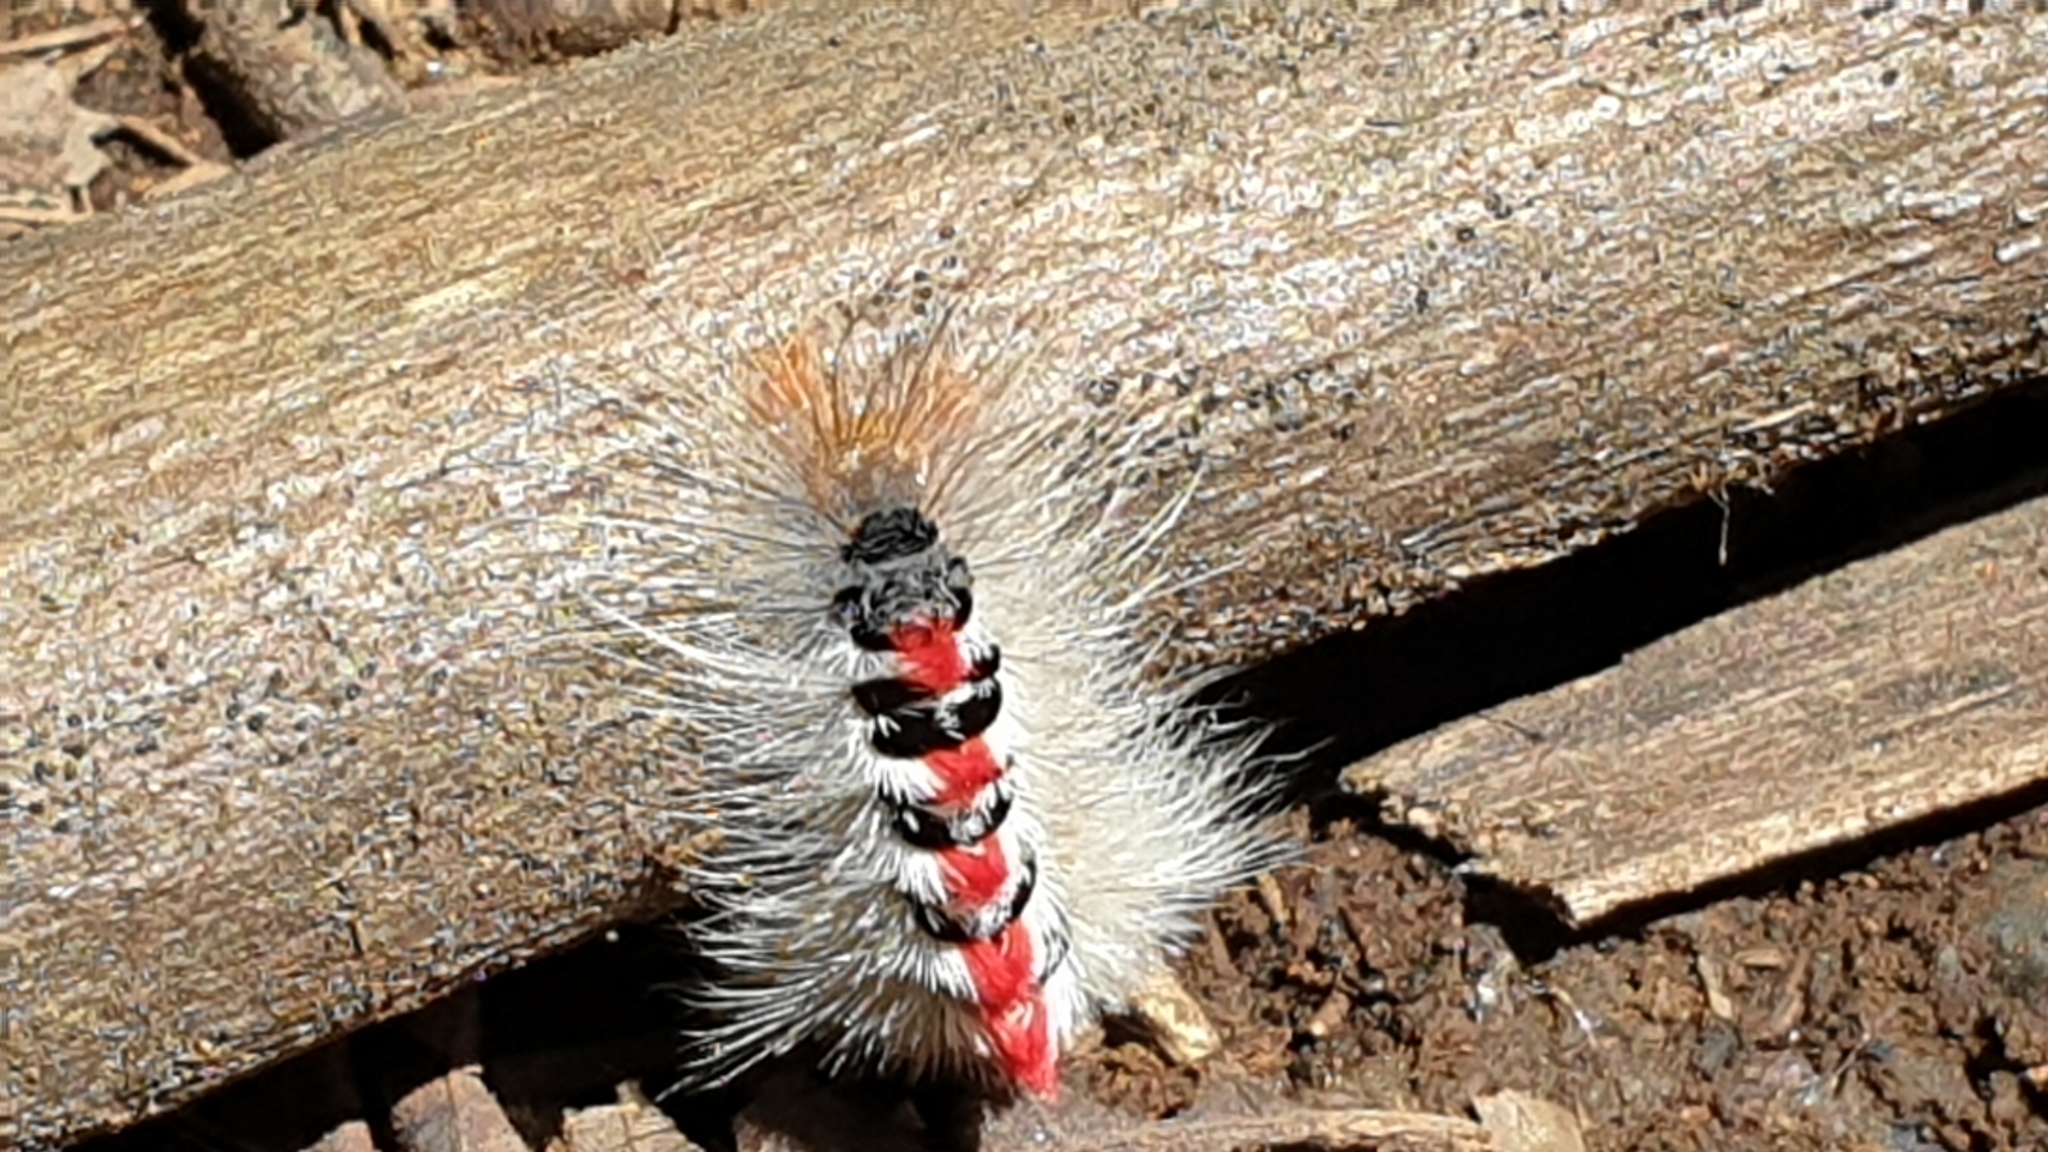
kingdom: Animalia
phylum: Arthropoda
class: Insecta
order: Lepidoptera
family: Notodontidae
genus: Trichiocercus
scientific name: Trichiocercus sparshalli
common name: Long-tailed satin
